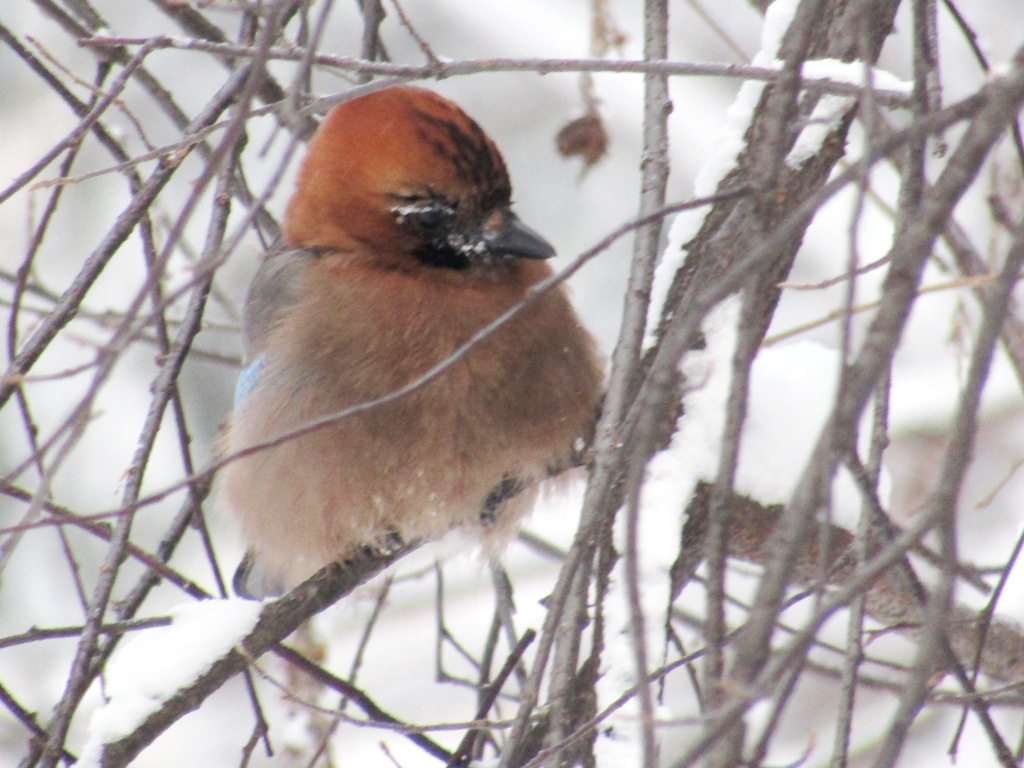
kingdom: Animalia
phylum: Chordata
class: Aves
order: Passeriformes
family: Corvidae
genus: Garrulus
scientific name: Garrulus glandarius
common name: Eurasian jay
